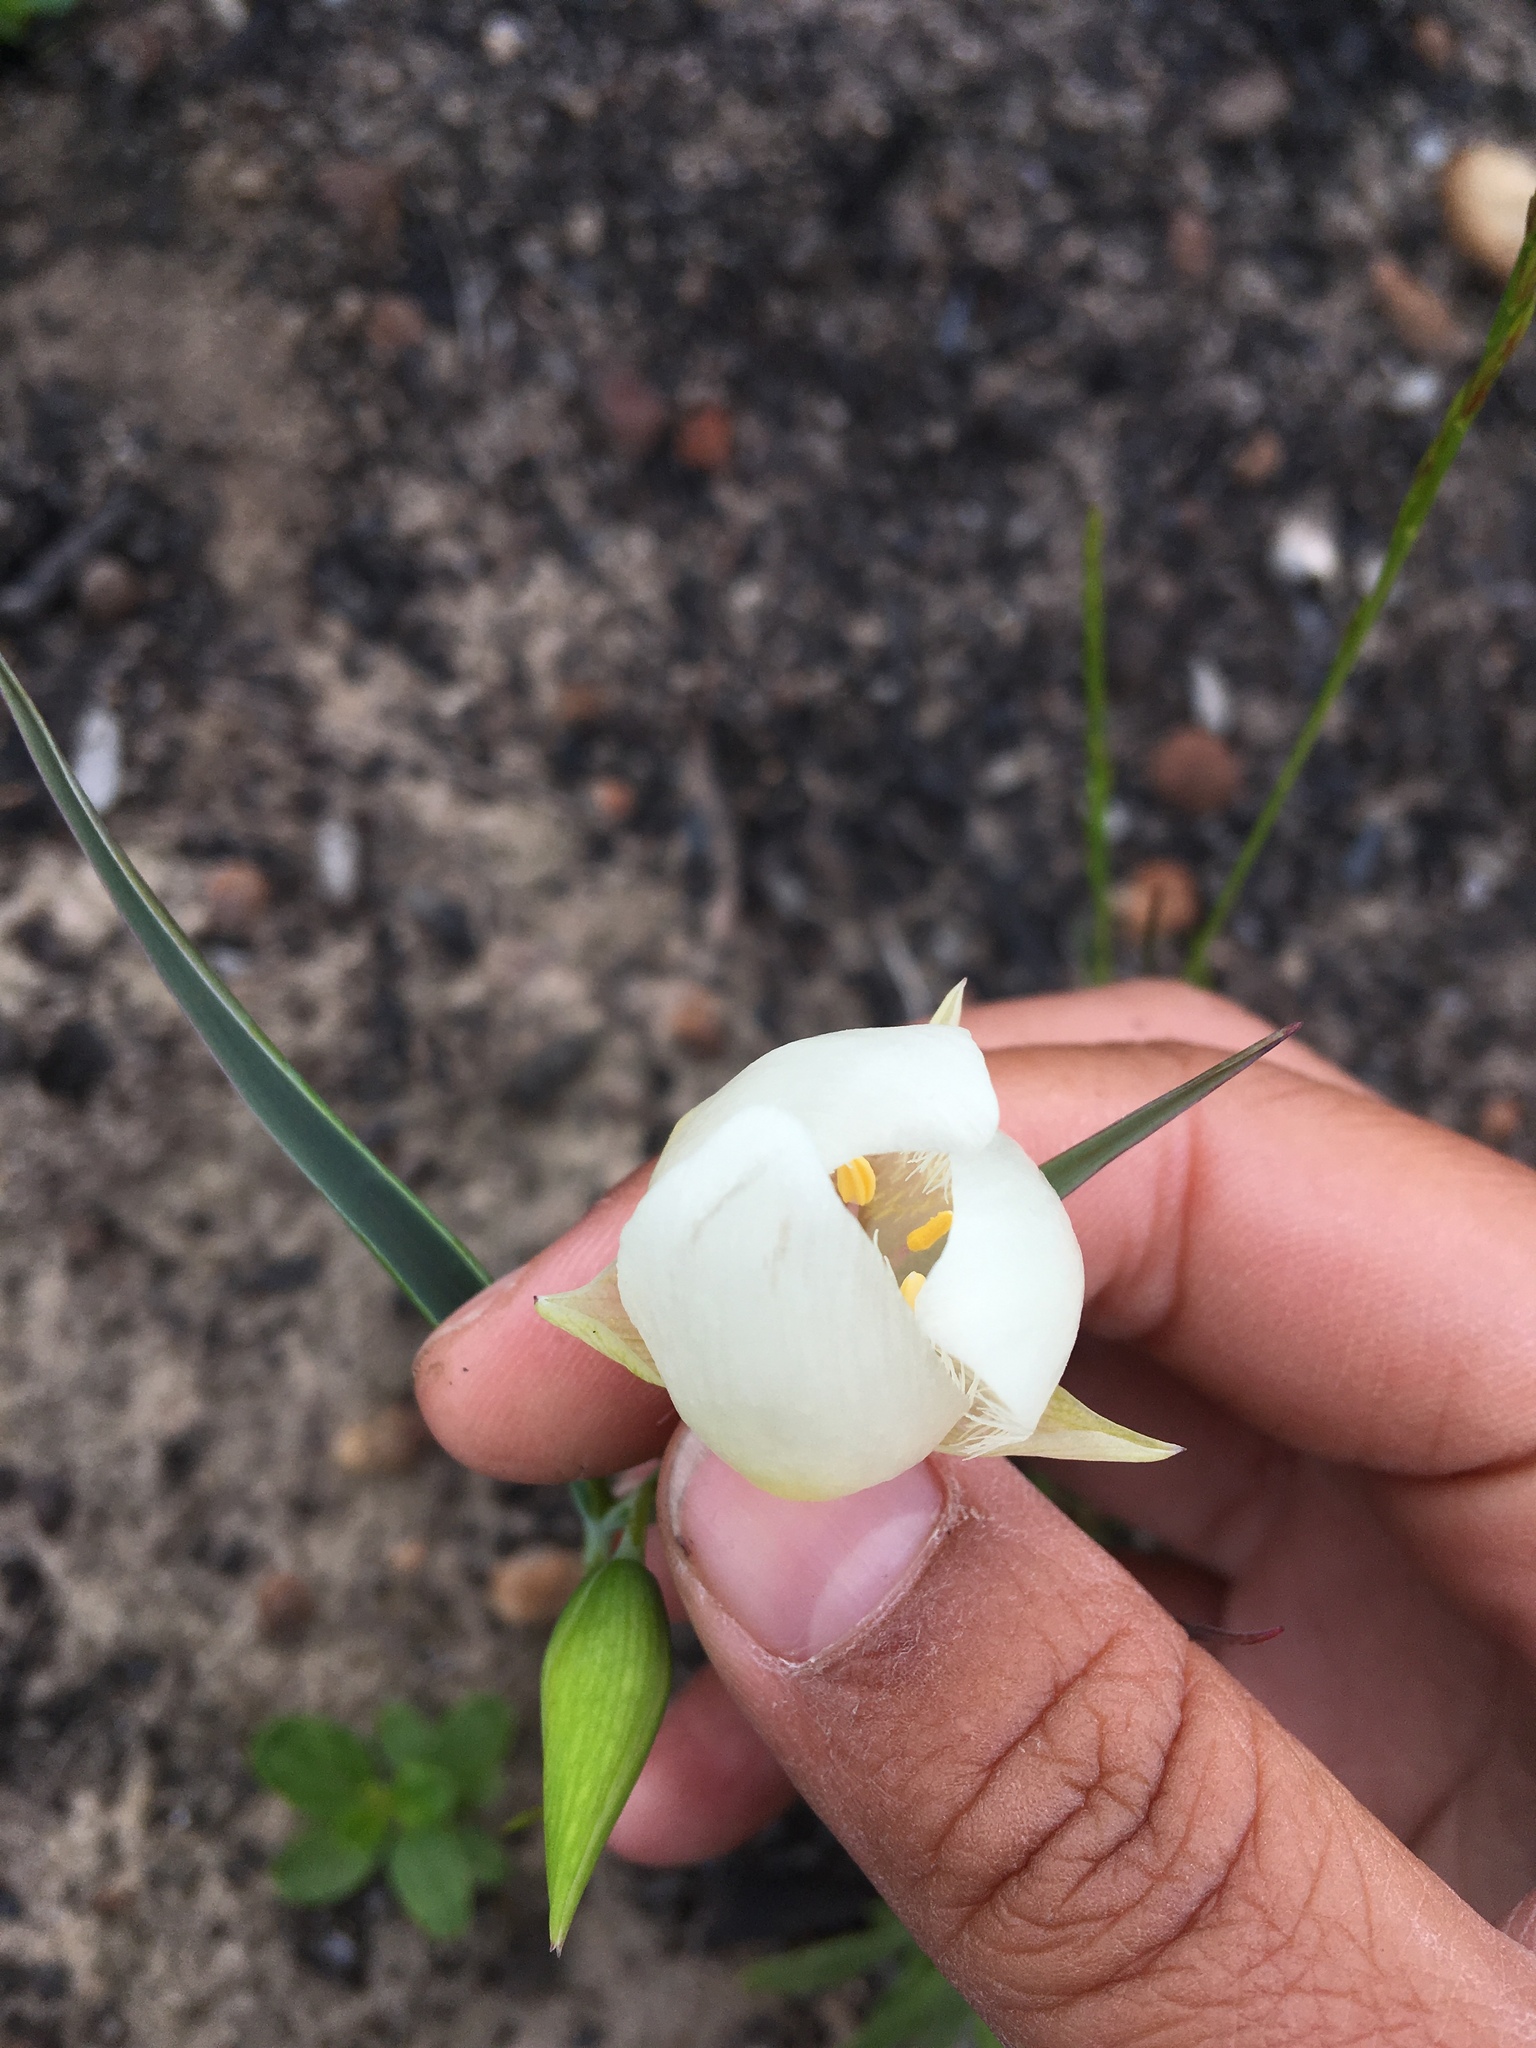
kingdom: Plantae
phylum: Tracheophyta
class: Liliopsida
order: Liliales
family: Liliaceae
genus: Calochortus
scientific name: Calochortus albus
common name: Fairy-lantern
